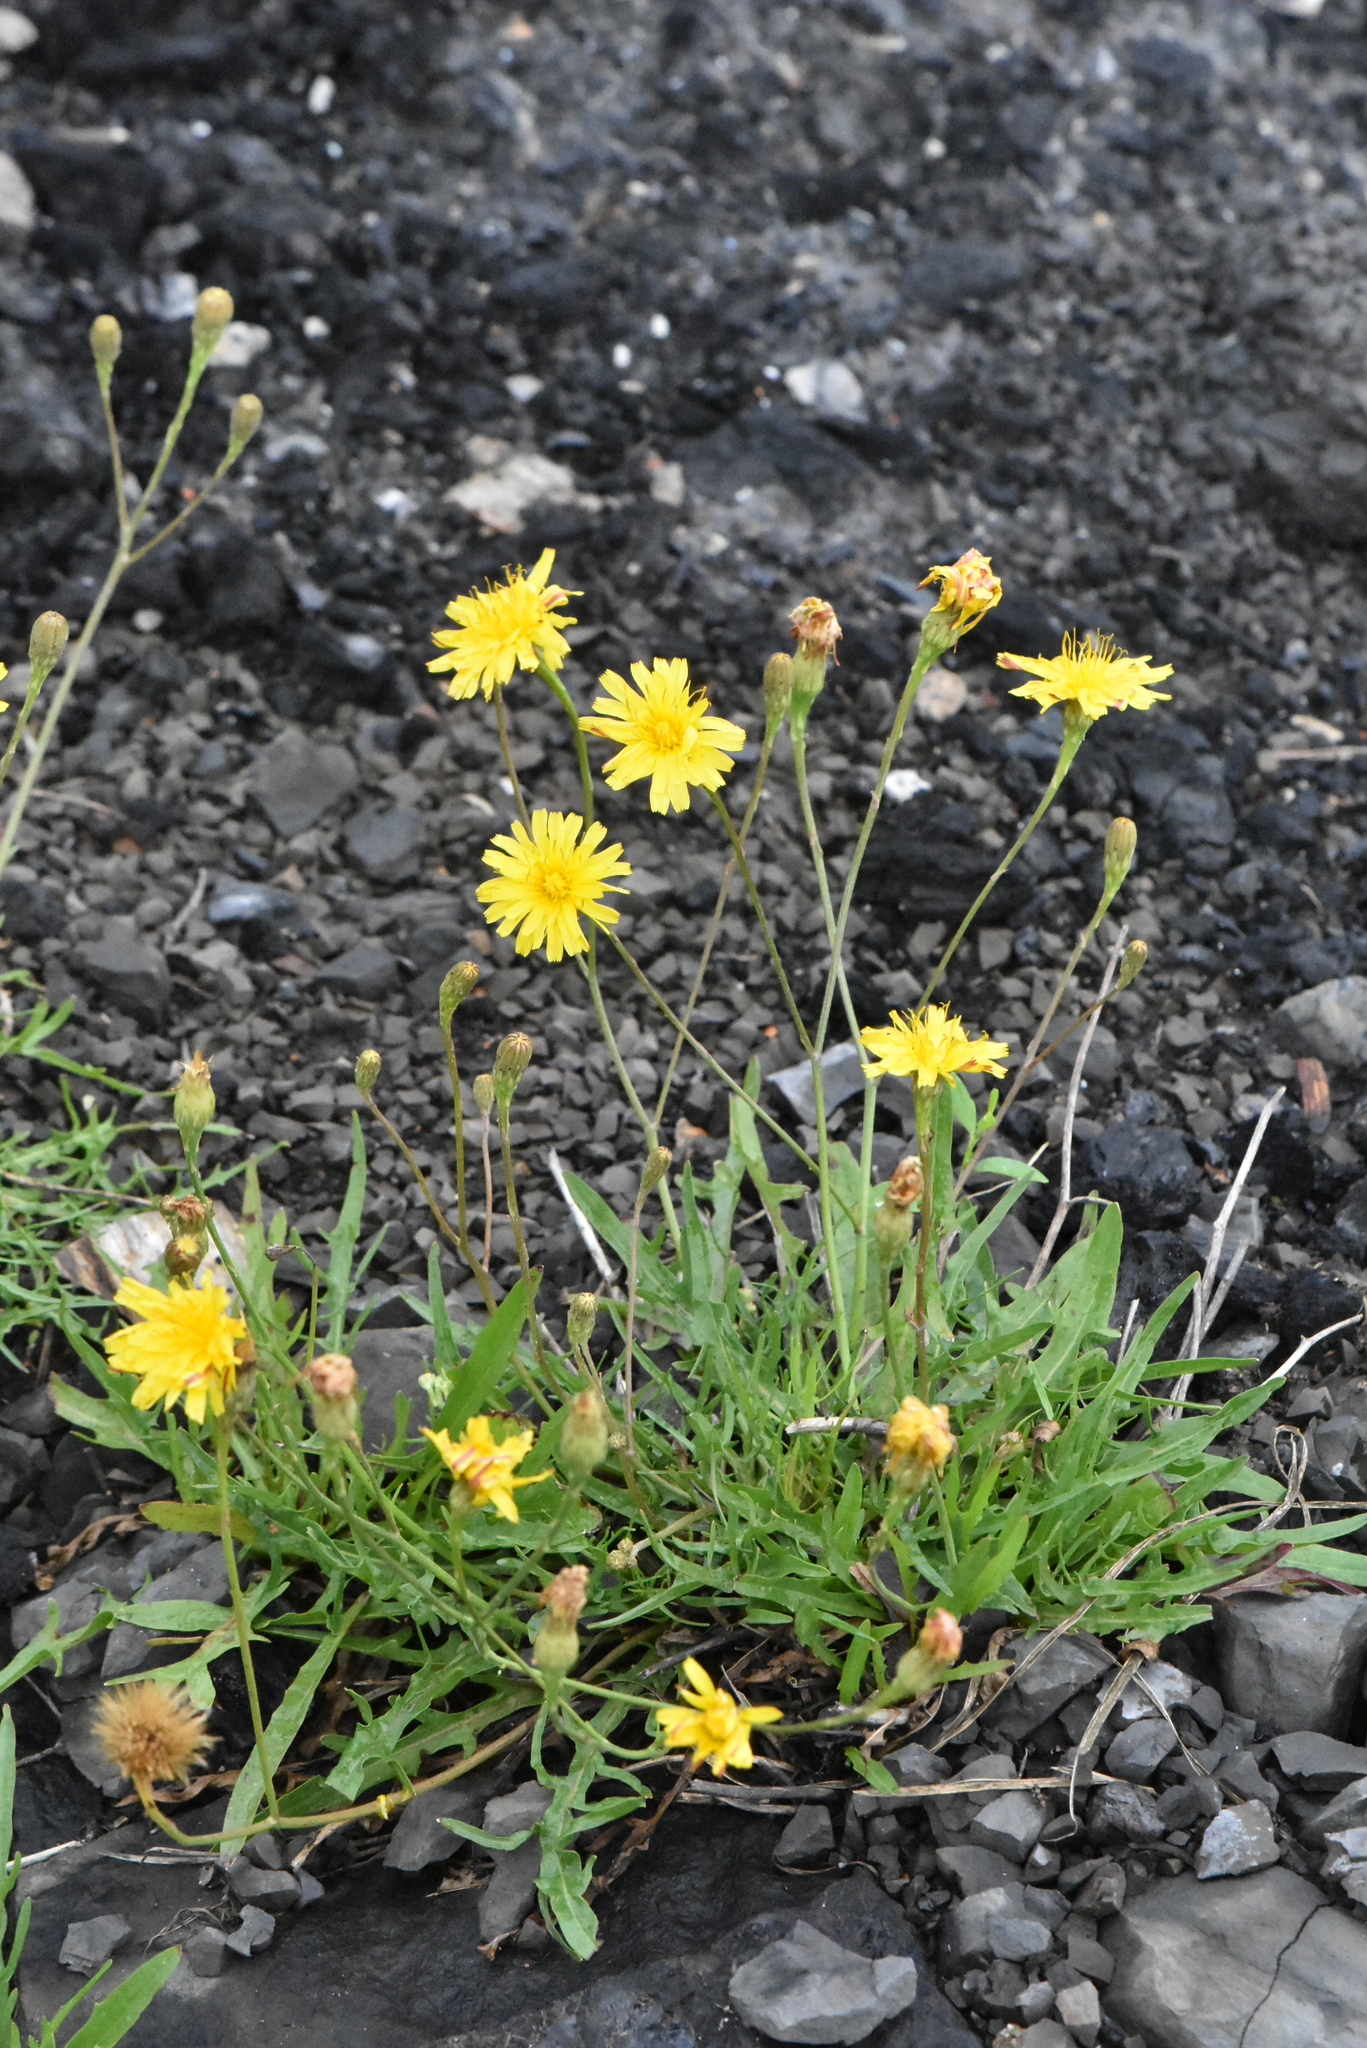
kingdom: Plantae
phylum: Tracheophyta
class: Magnoliopsida
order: Asterales
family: Asteraceae
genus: Scorzoneroides
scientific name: Scorzoneroides autumnalis
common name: Autumn hawkbit
